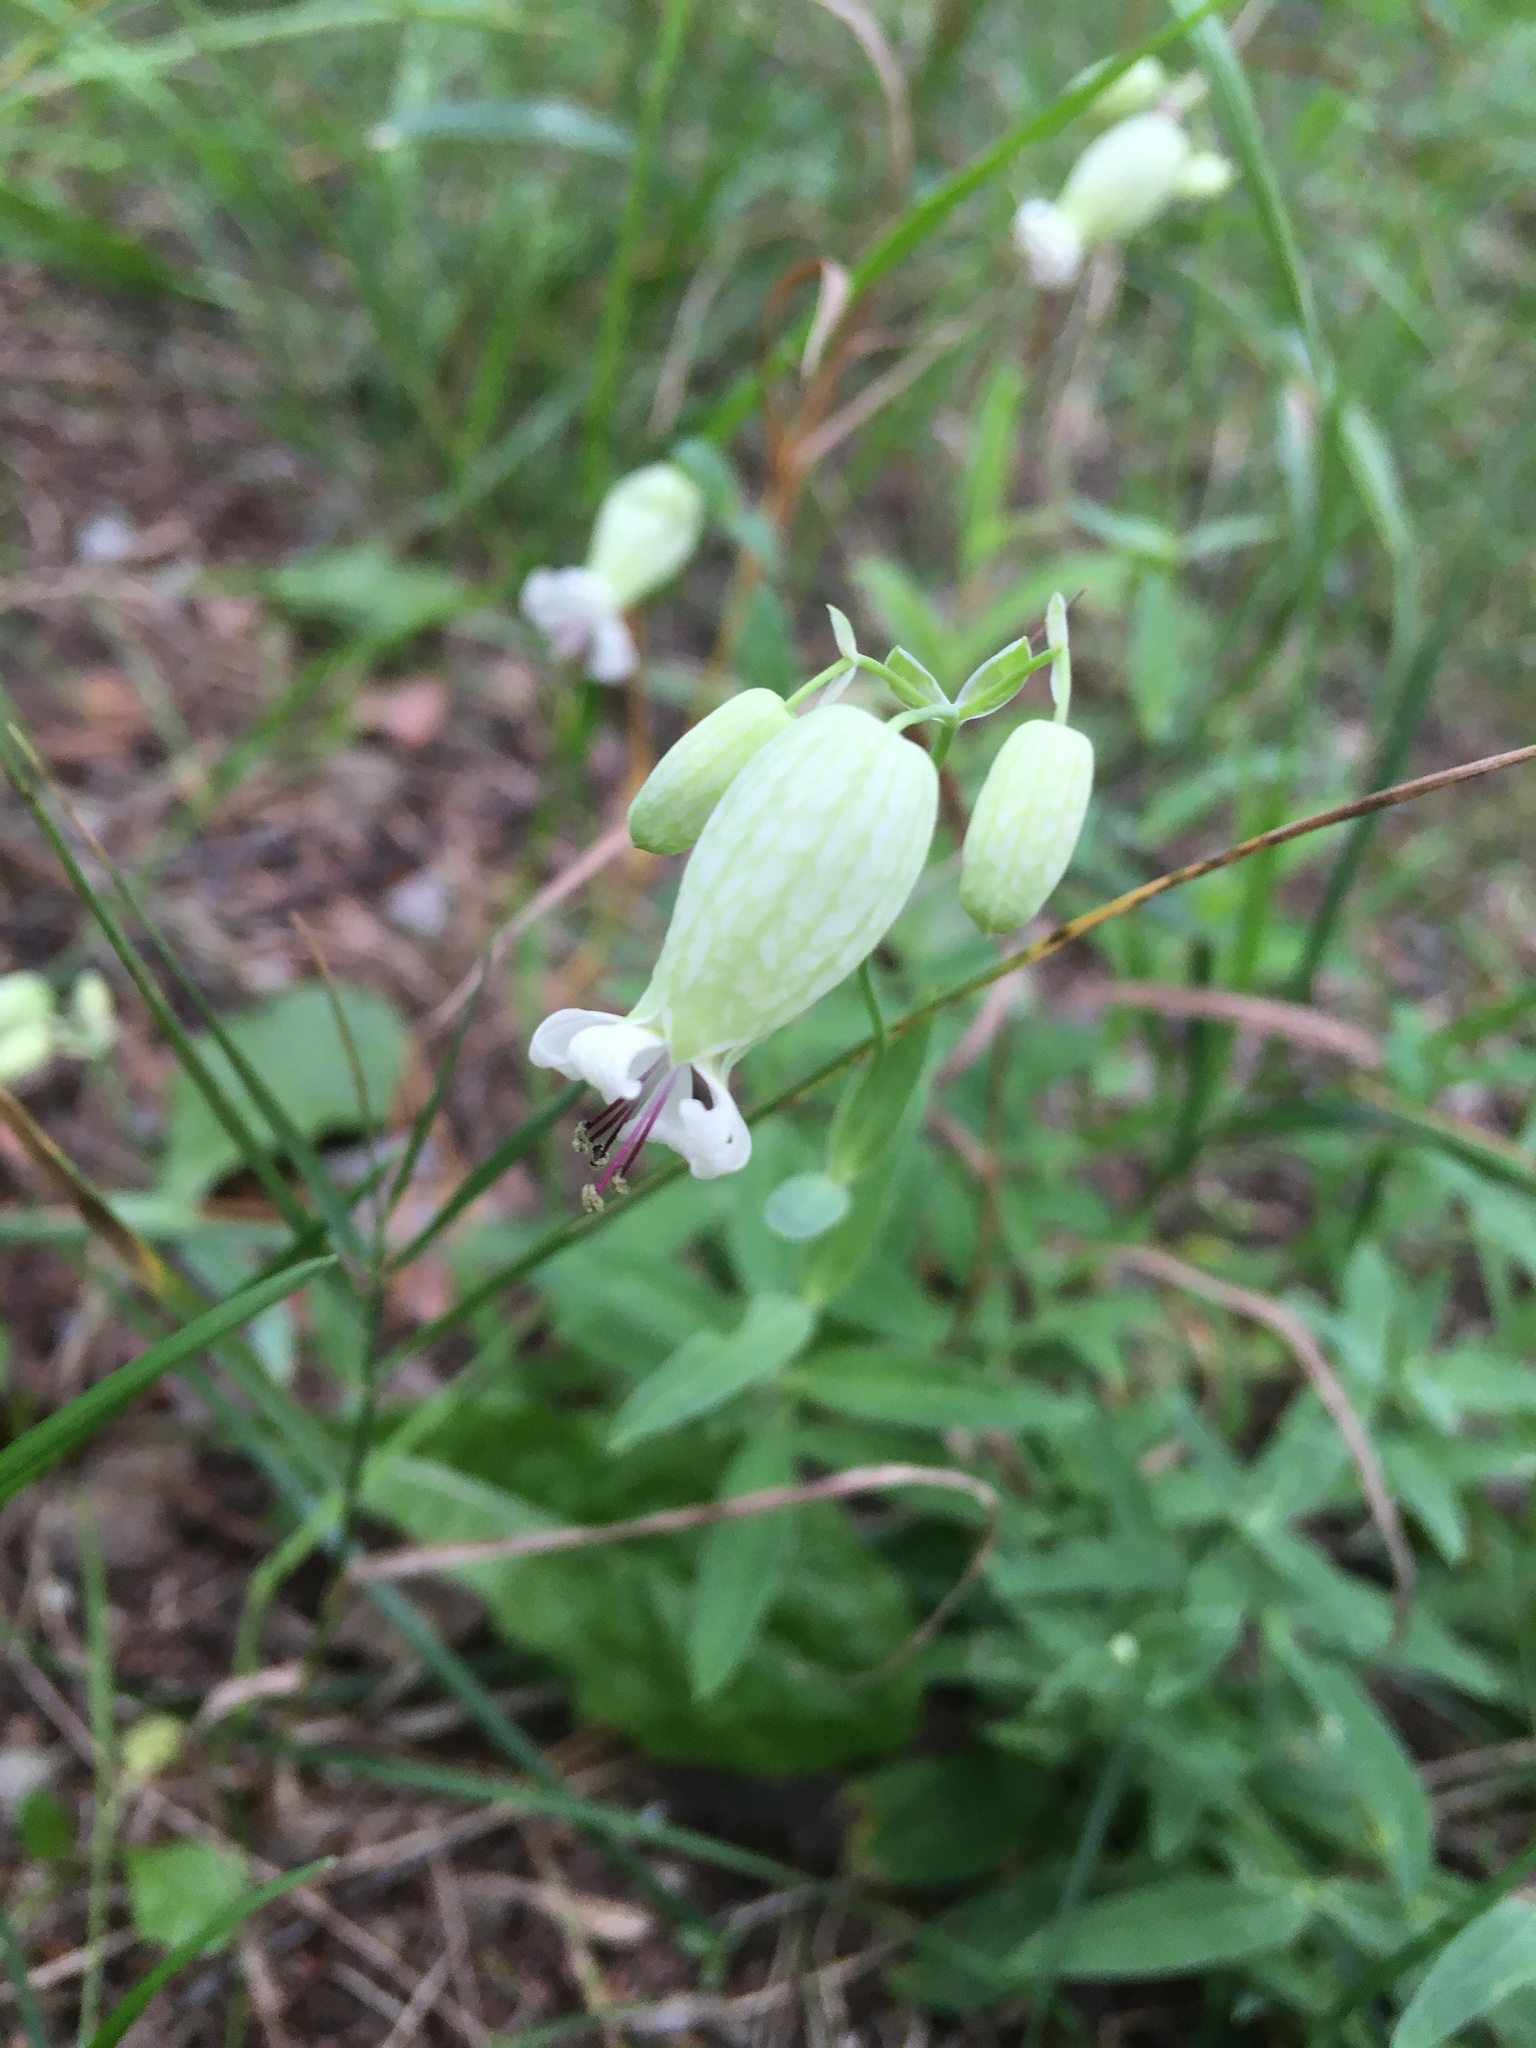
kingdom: Plantae
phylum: Tracheophyta
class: Magnoliopsida
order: Caryophyllales
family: Caryophyllaceae
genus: Silene
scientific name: Silene vulgaris
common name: Bladder campion
